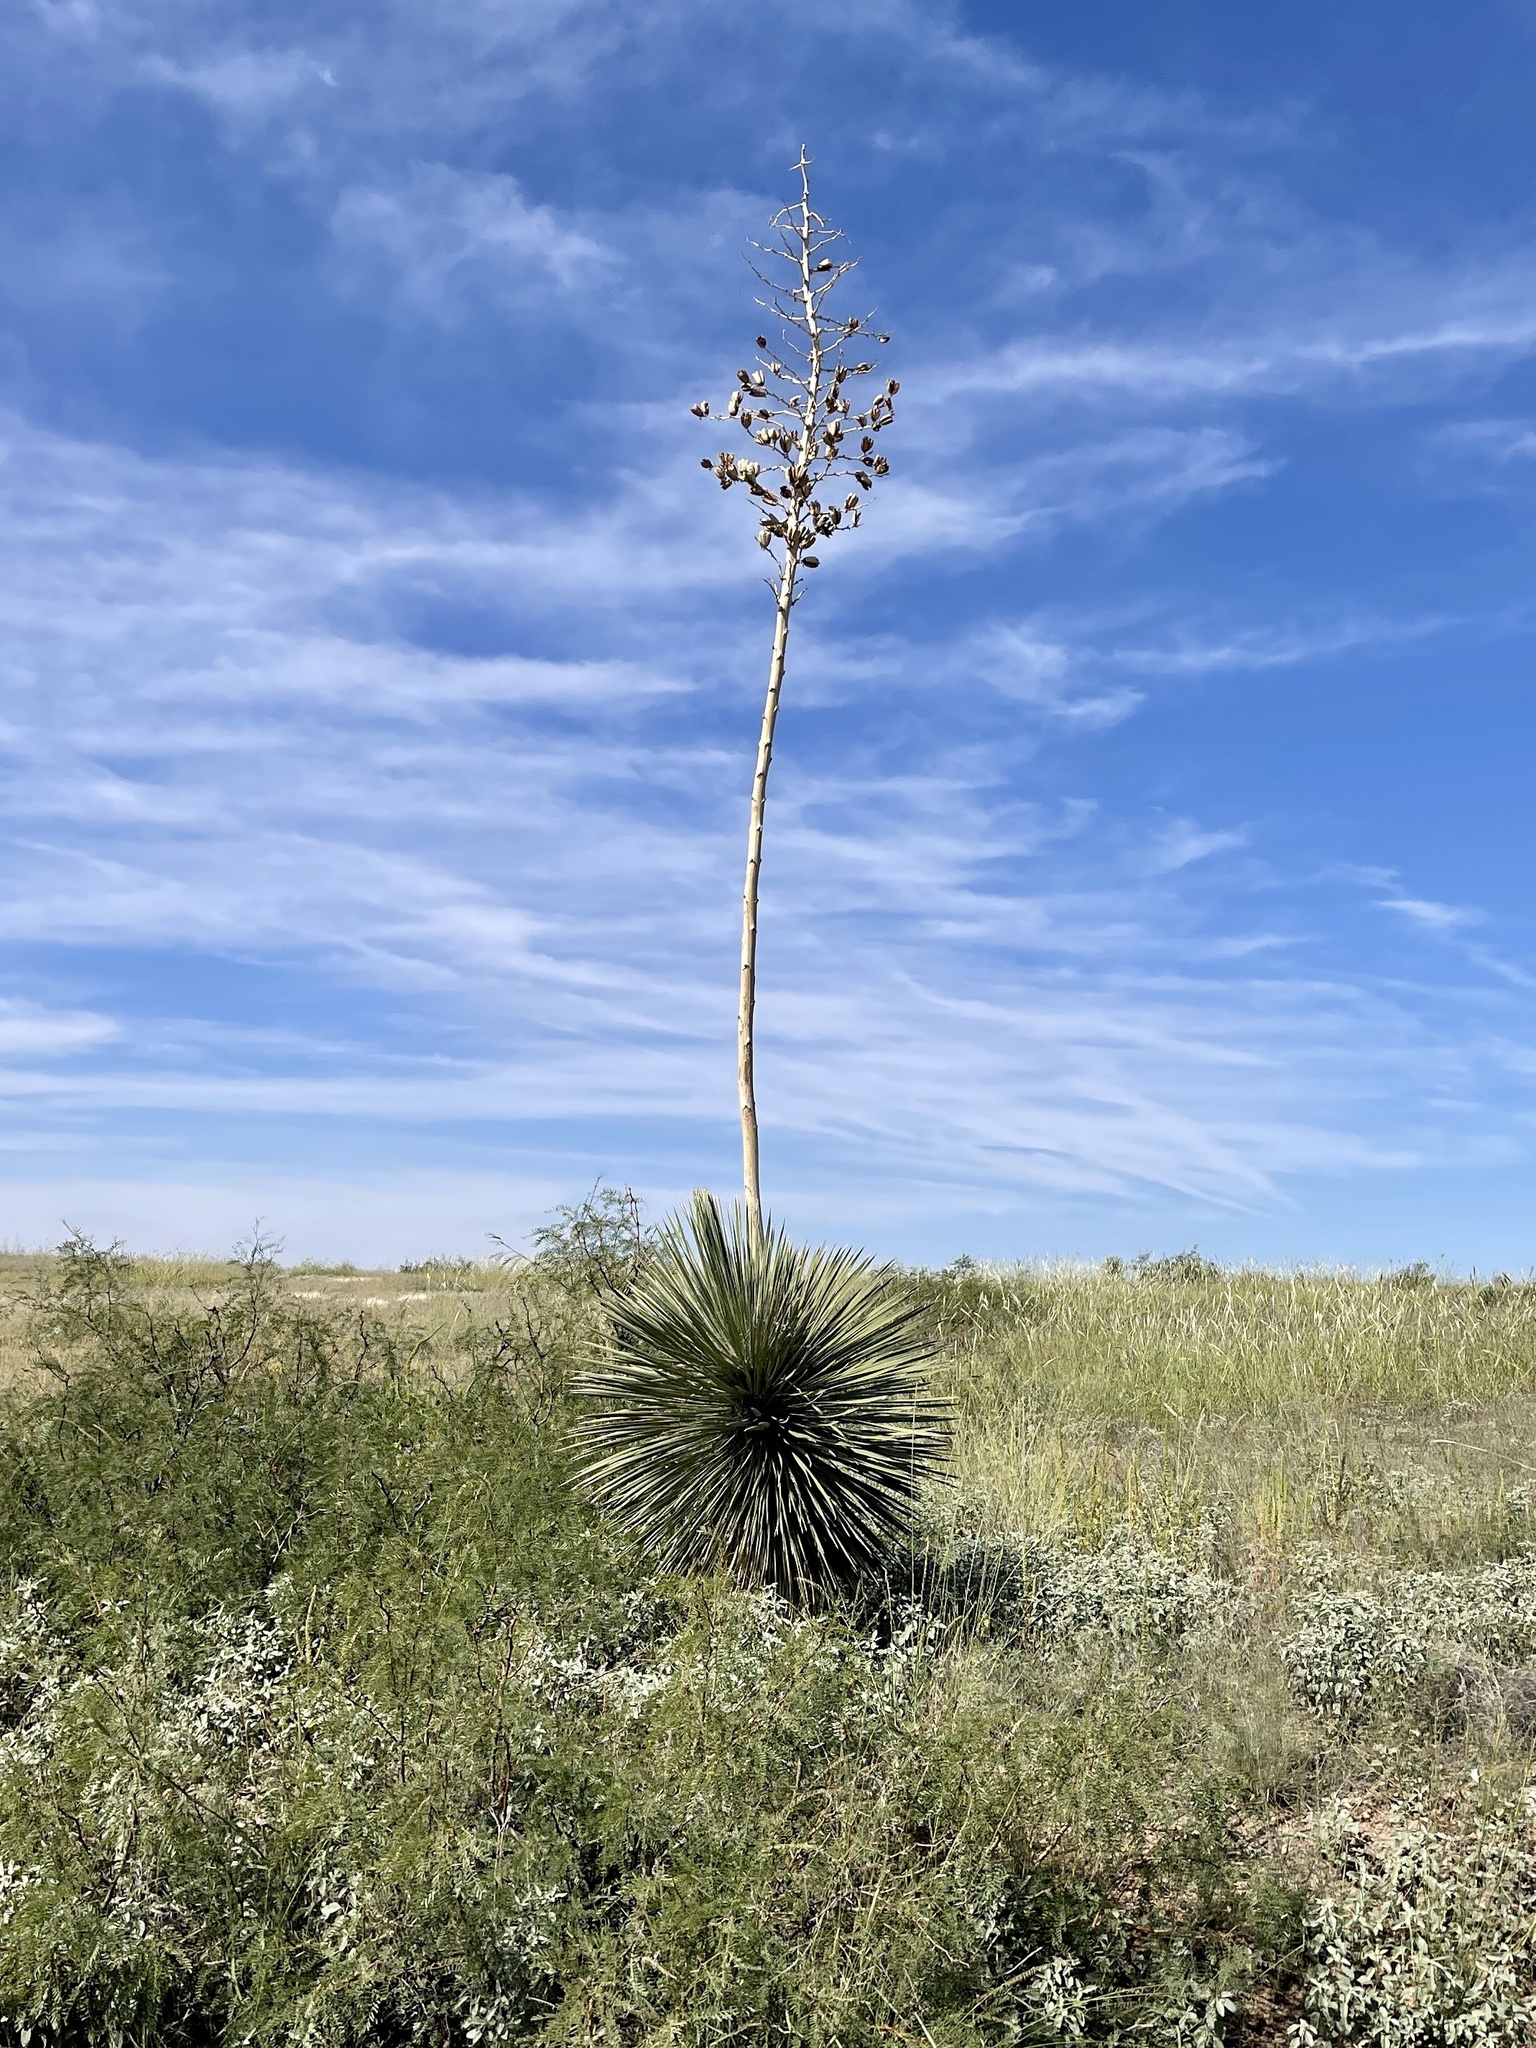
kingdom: Plantae
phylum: Tracheophyta
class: Liliopsida
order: Asparagales
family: Asparagaceae
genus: Yucca
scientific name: Yucca elata
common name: Palmella
